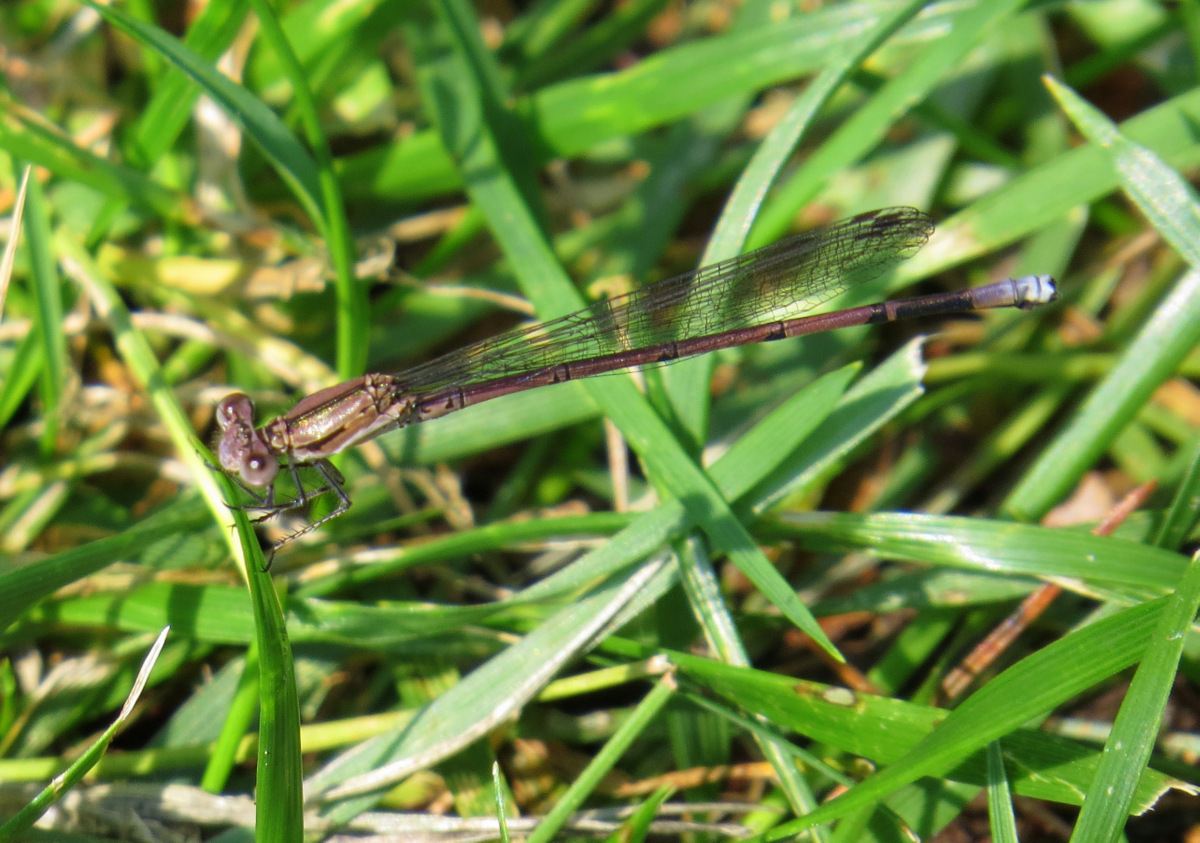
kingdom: Animalia
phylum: Arthropoda
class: Insecta
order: Odonata
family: Coenagrionidae
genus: Argia
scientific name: Argia fumipennis
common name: Variable dancer
